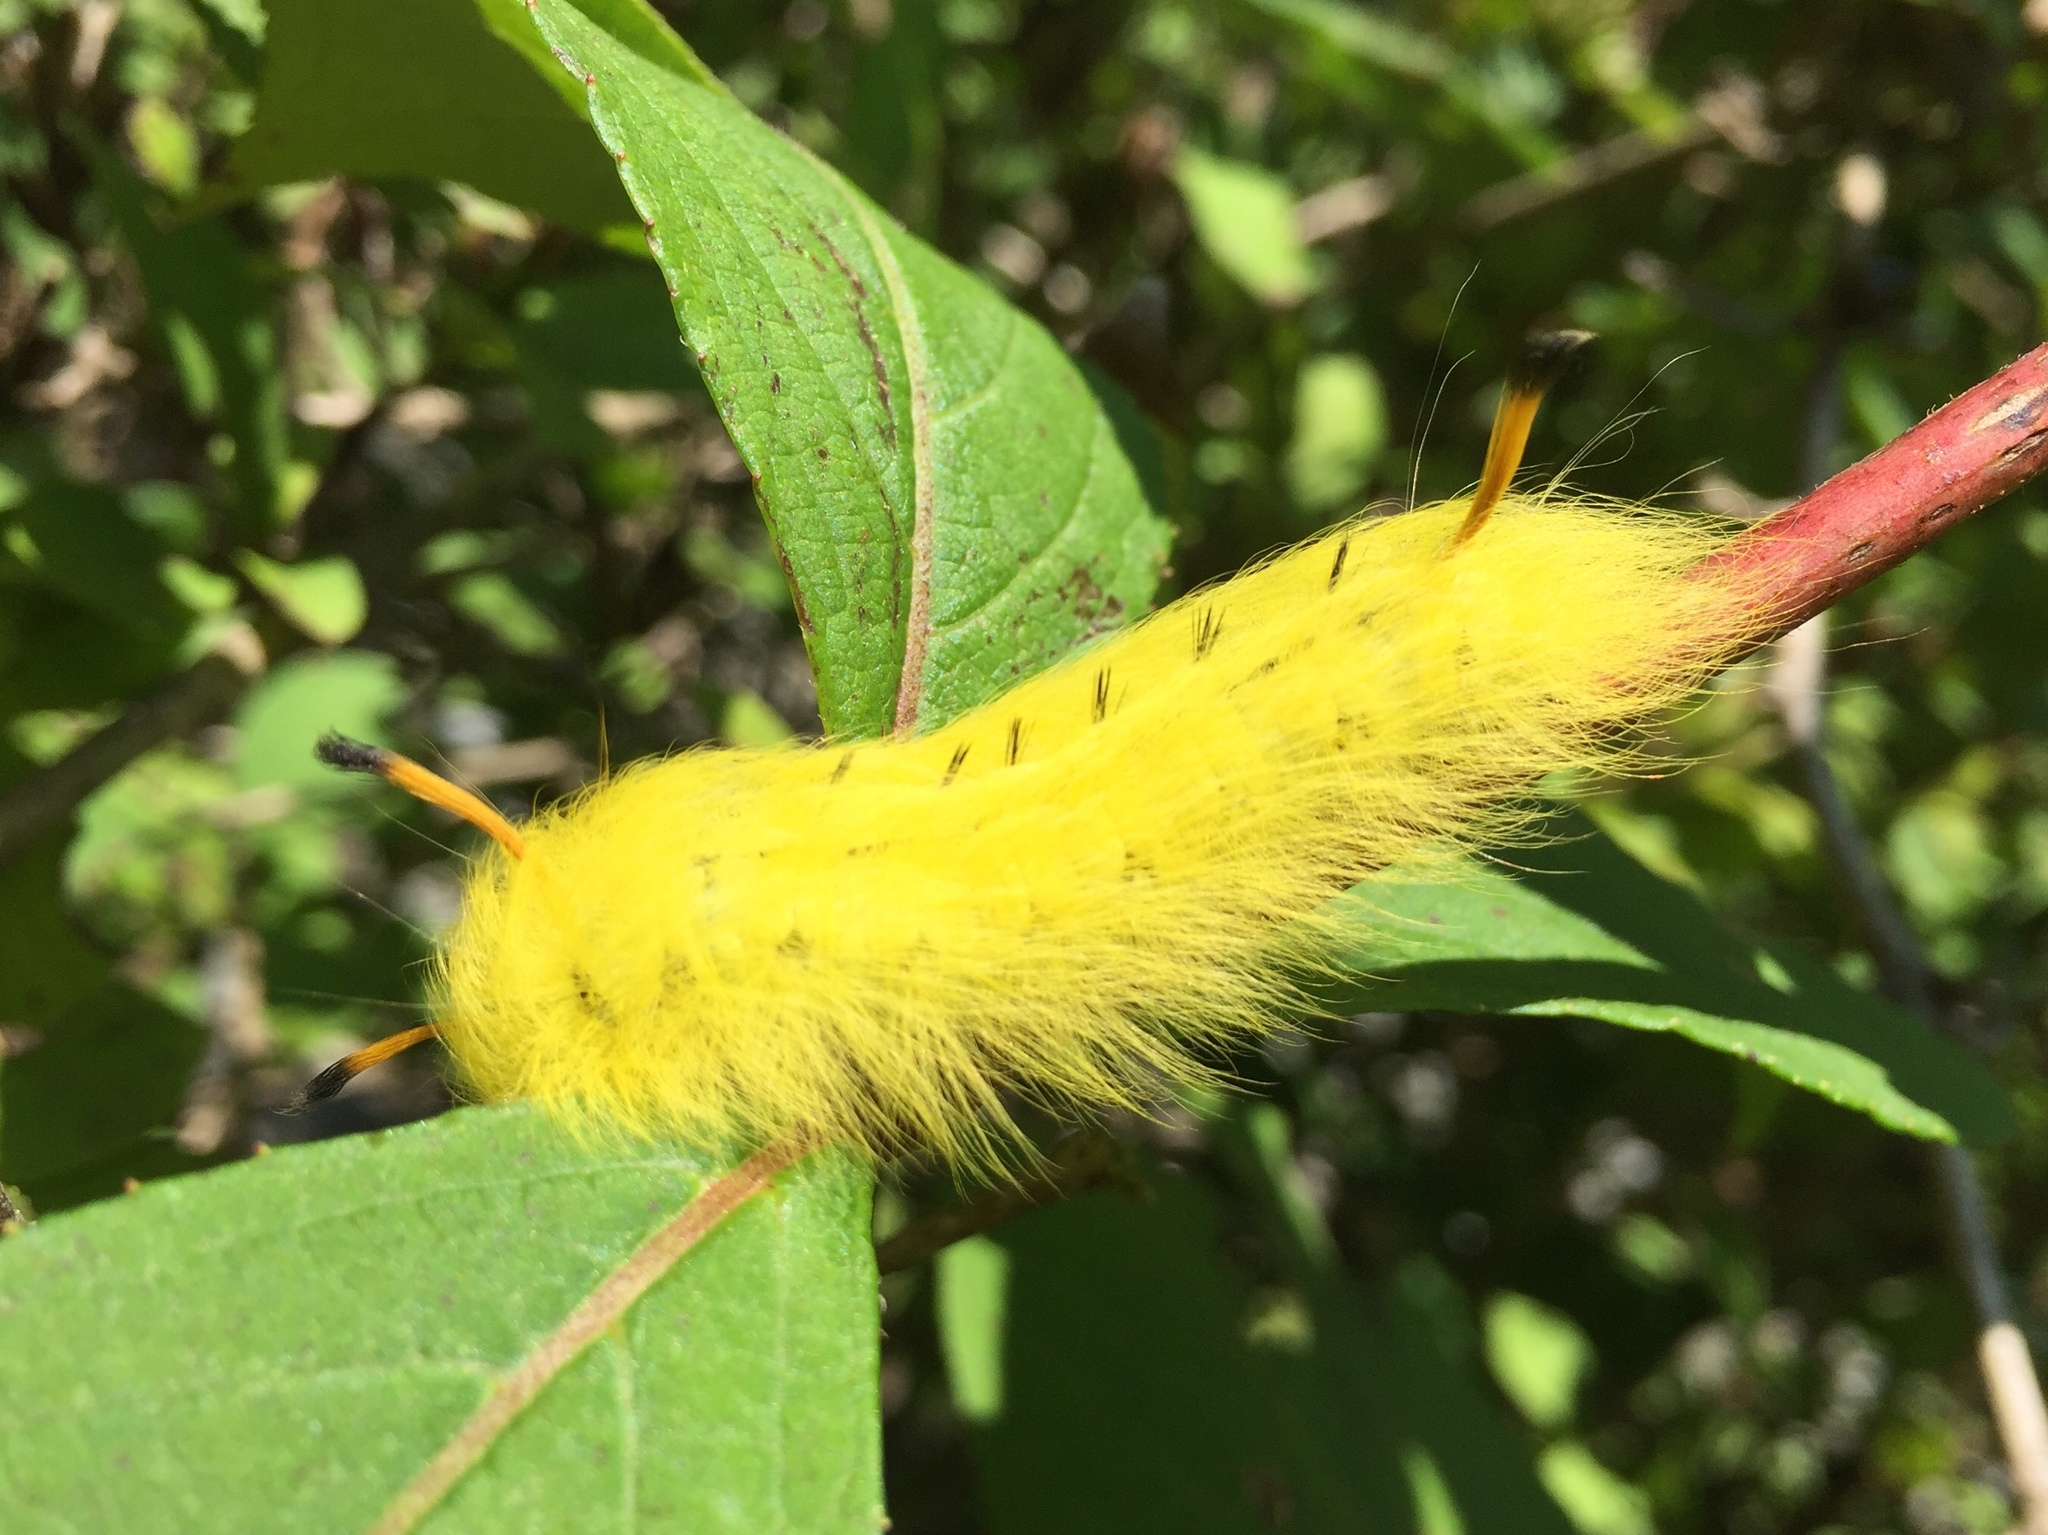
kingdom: Animalia
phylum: Arthropoda
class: Insecta
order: Lepidoptera
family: Apatelodidae
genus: Hygrochroa
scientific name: Hygrochroa Apatelodes torrefacta
